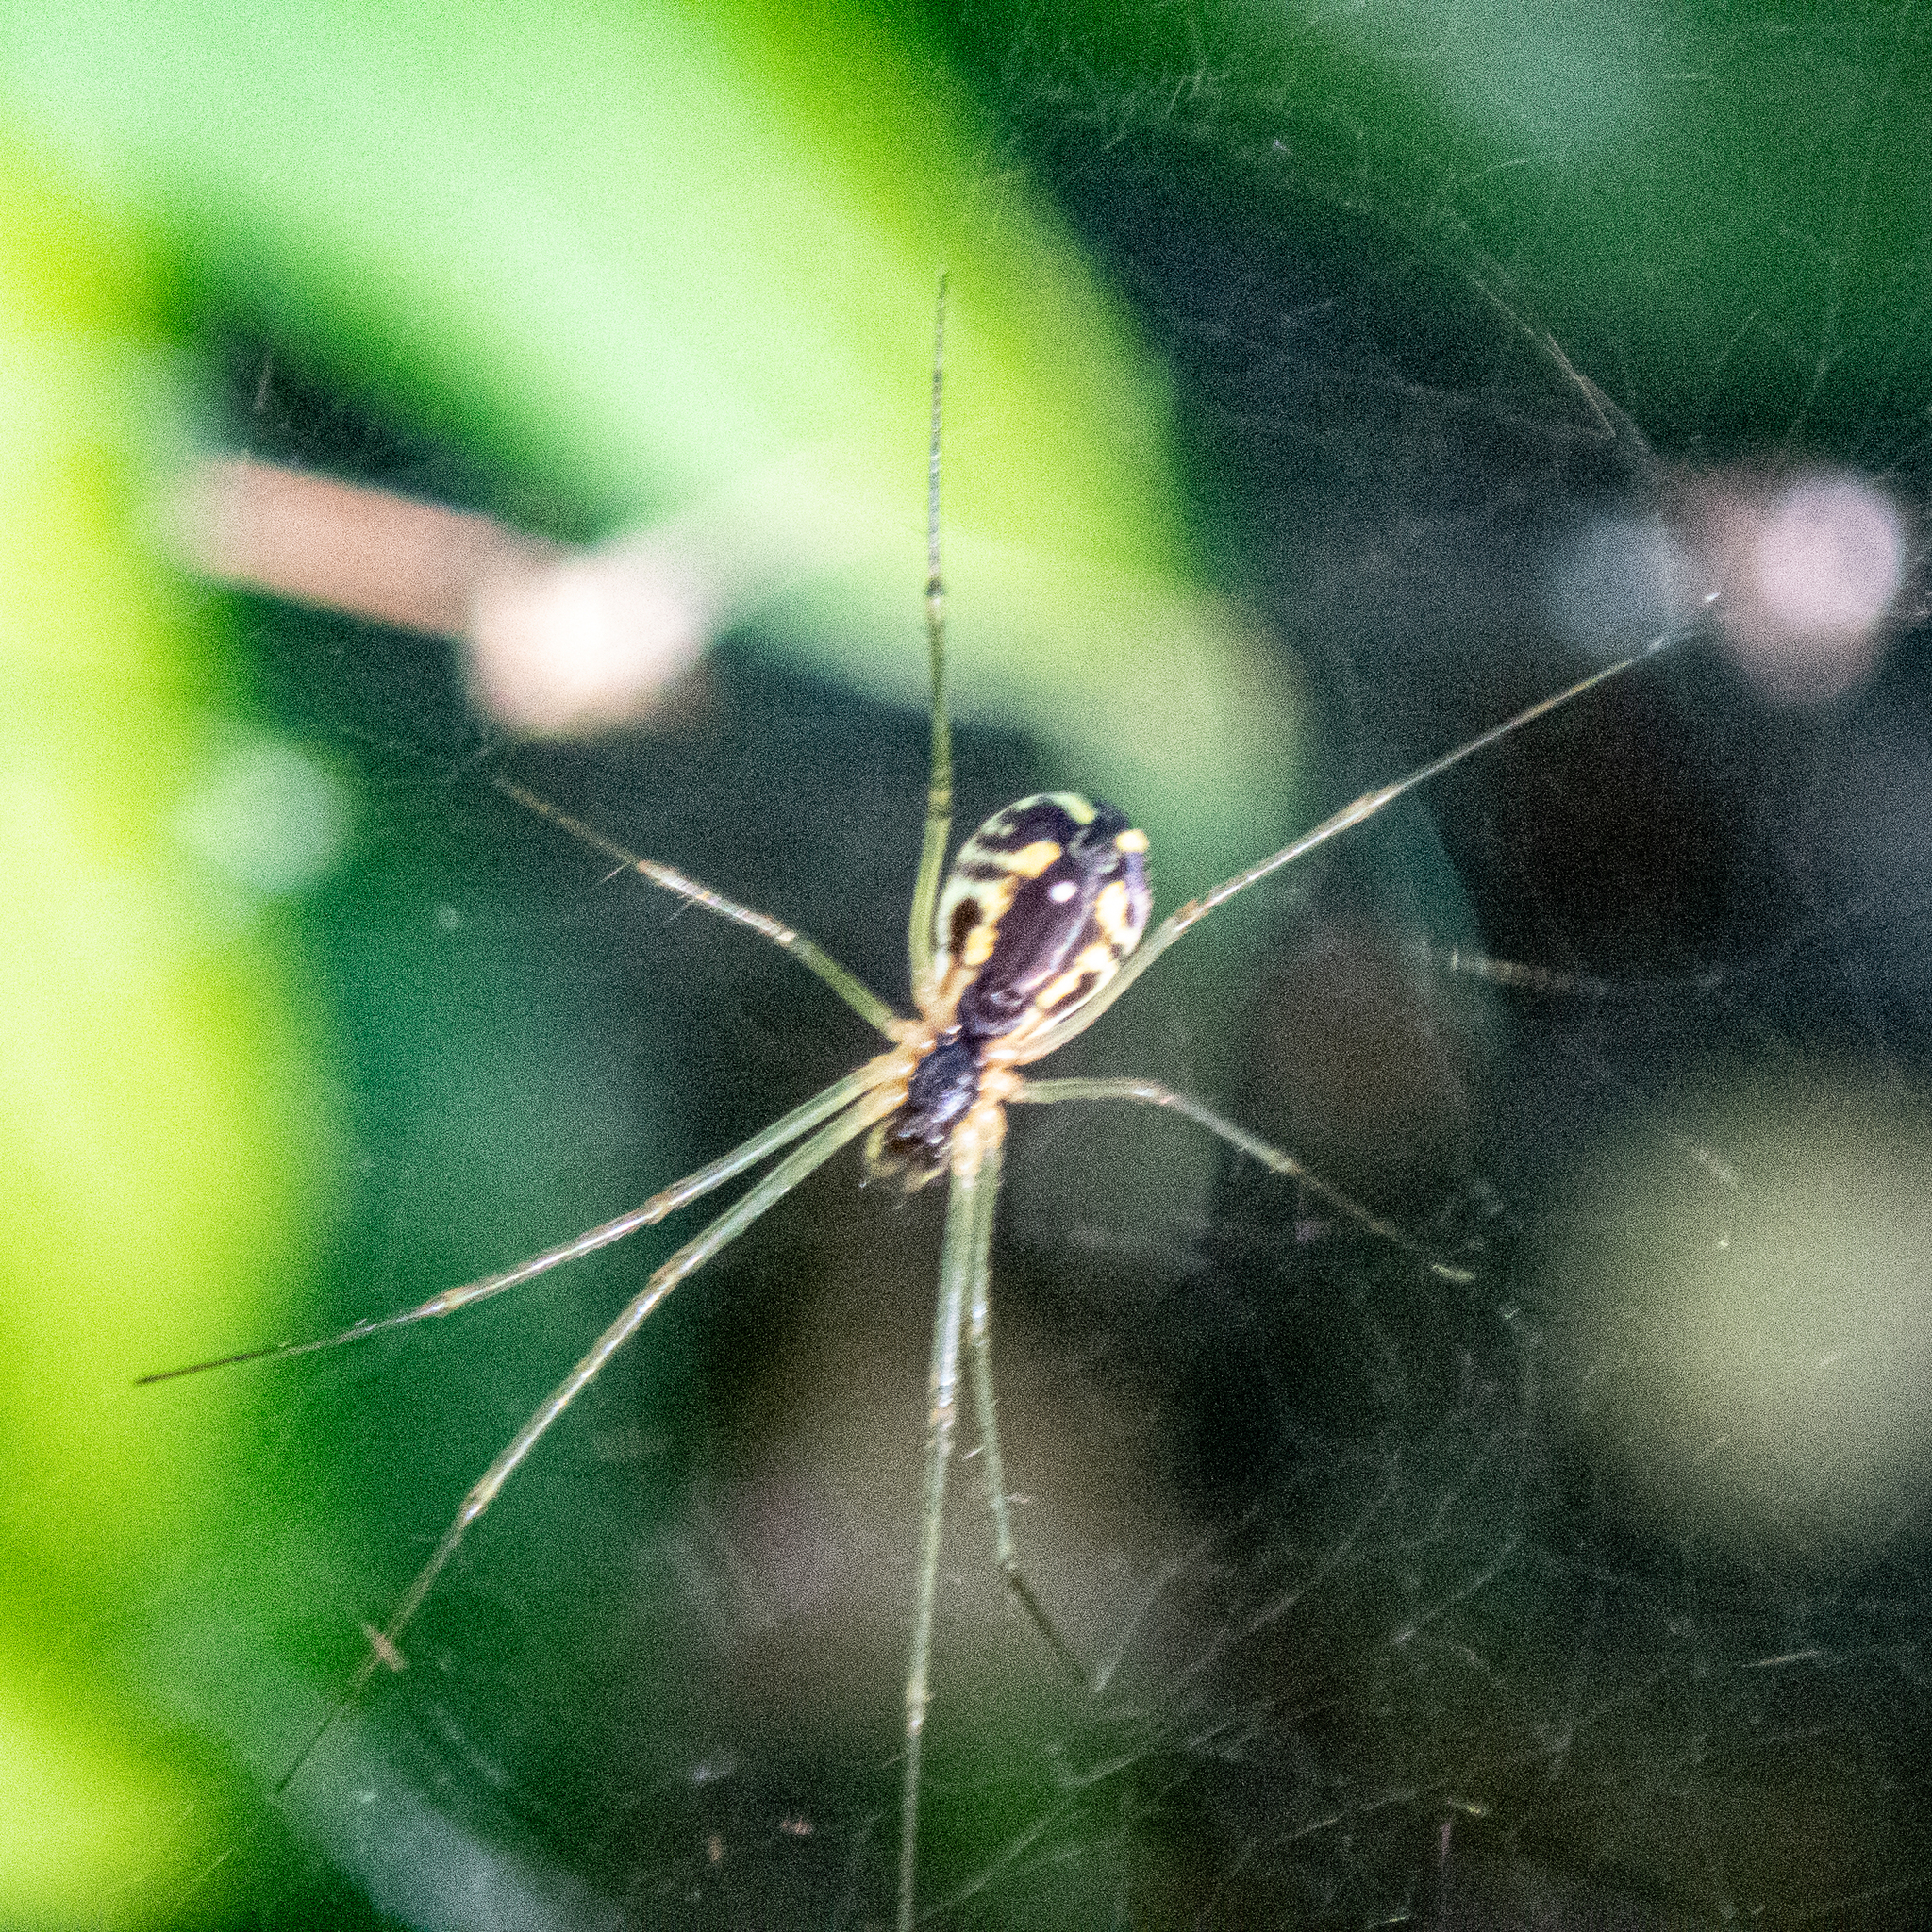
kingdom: Animalia
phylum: Arthropoda
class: Arachnida
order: Araneae
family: Linyphiidae
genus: Neriene
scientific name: Neriene radiata
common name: Filmy dome spider
